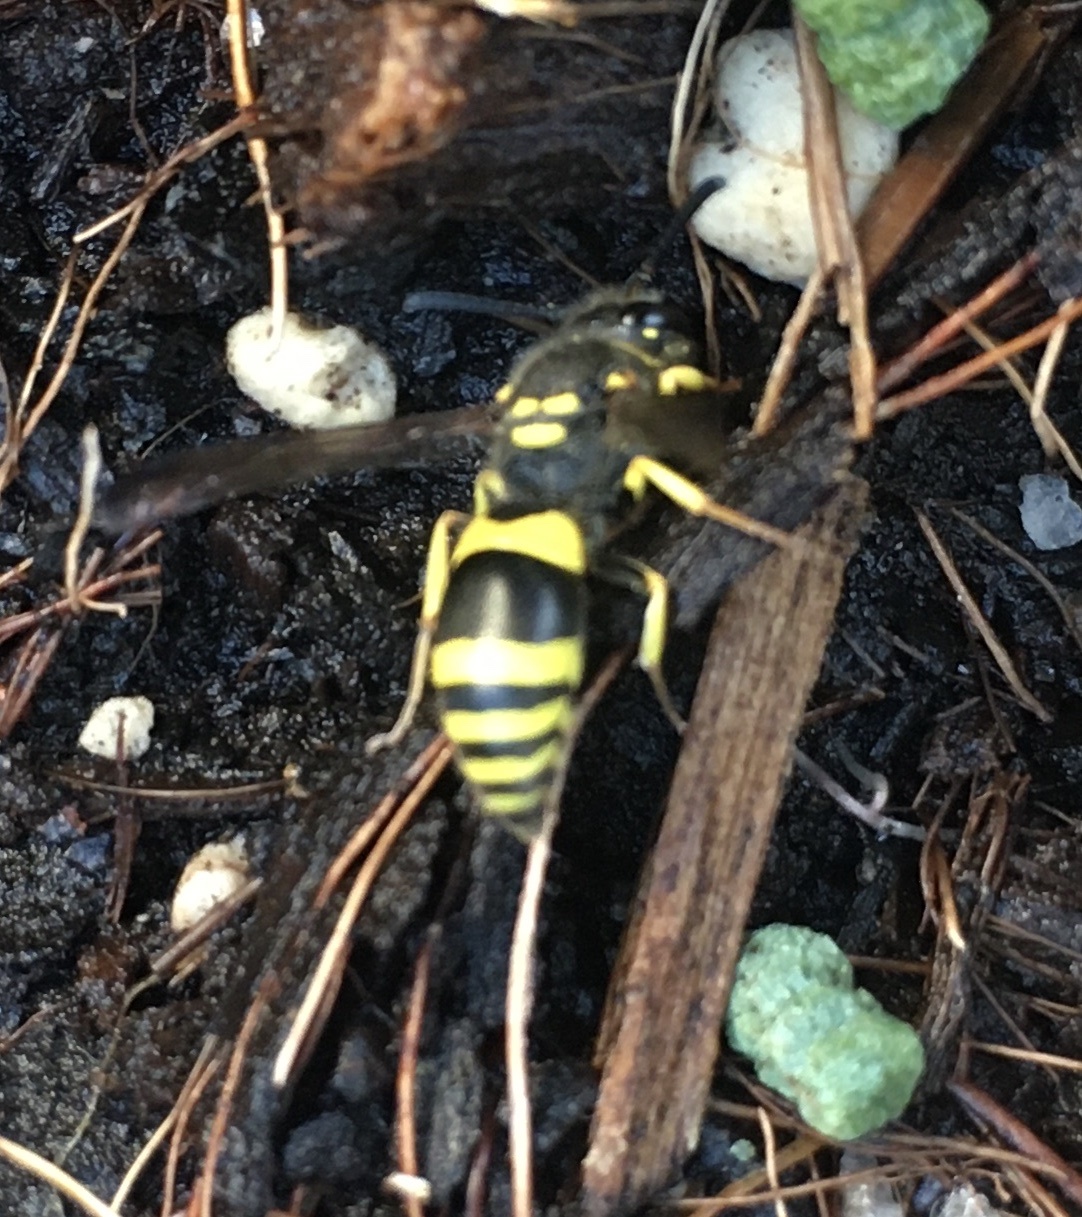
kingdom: Animalia
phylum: Arthropoda
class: Insecta
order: Hymenoptera
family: Vespidae
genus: Ancistrocerus
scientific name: Ancistrocerus gazella
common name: European tube wasp
